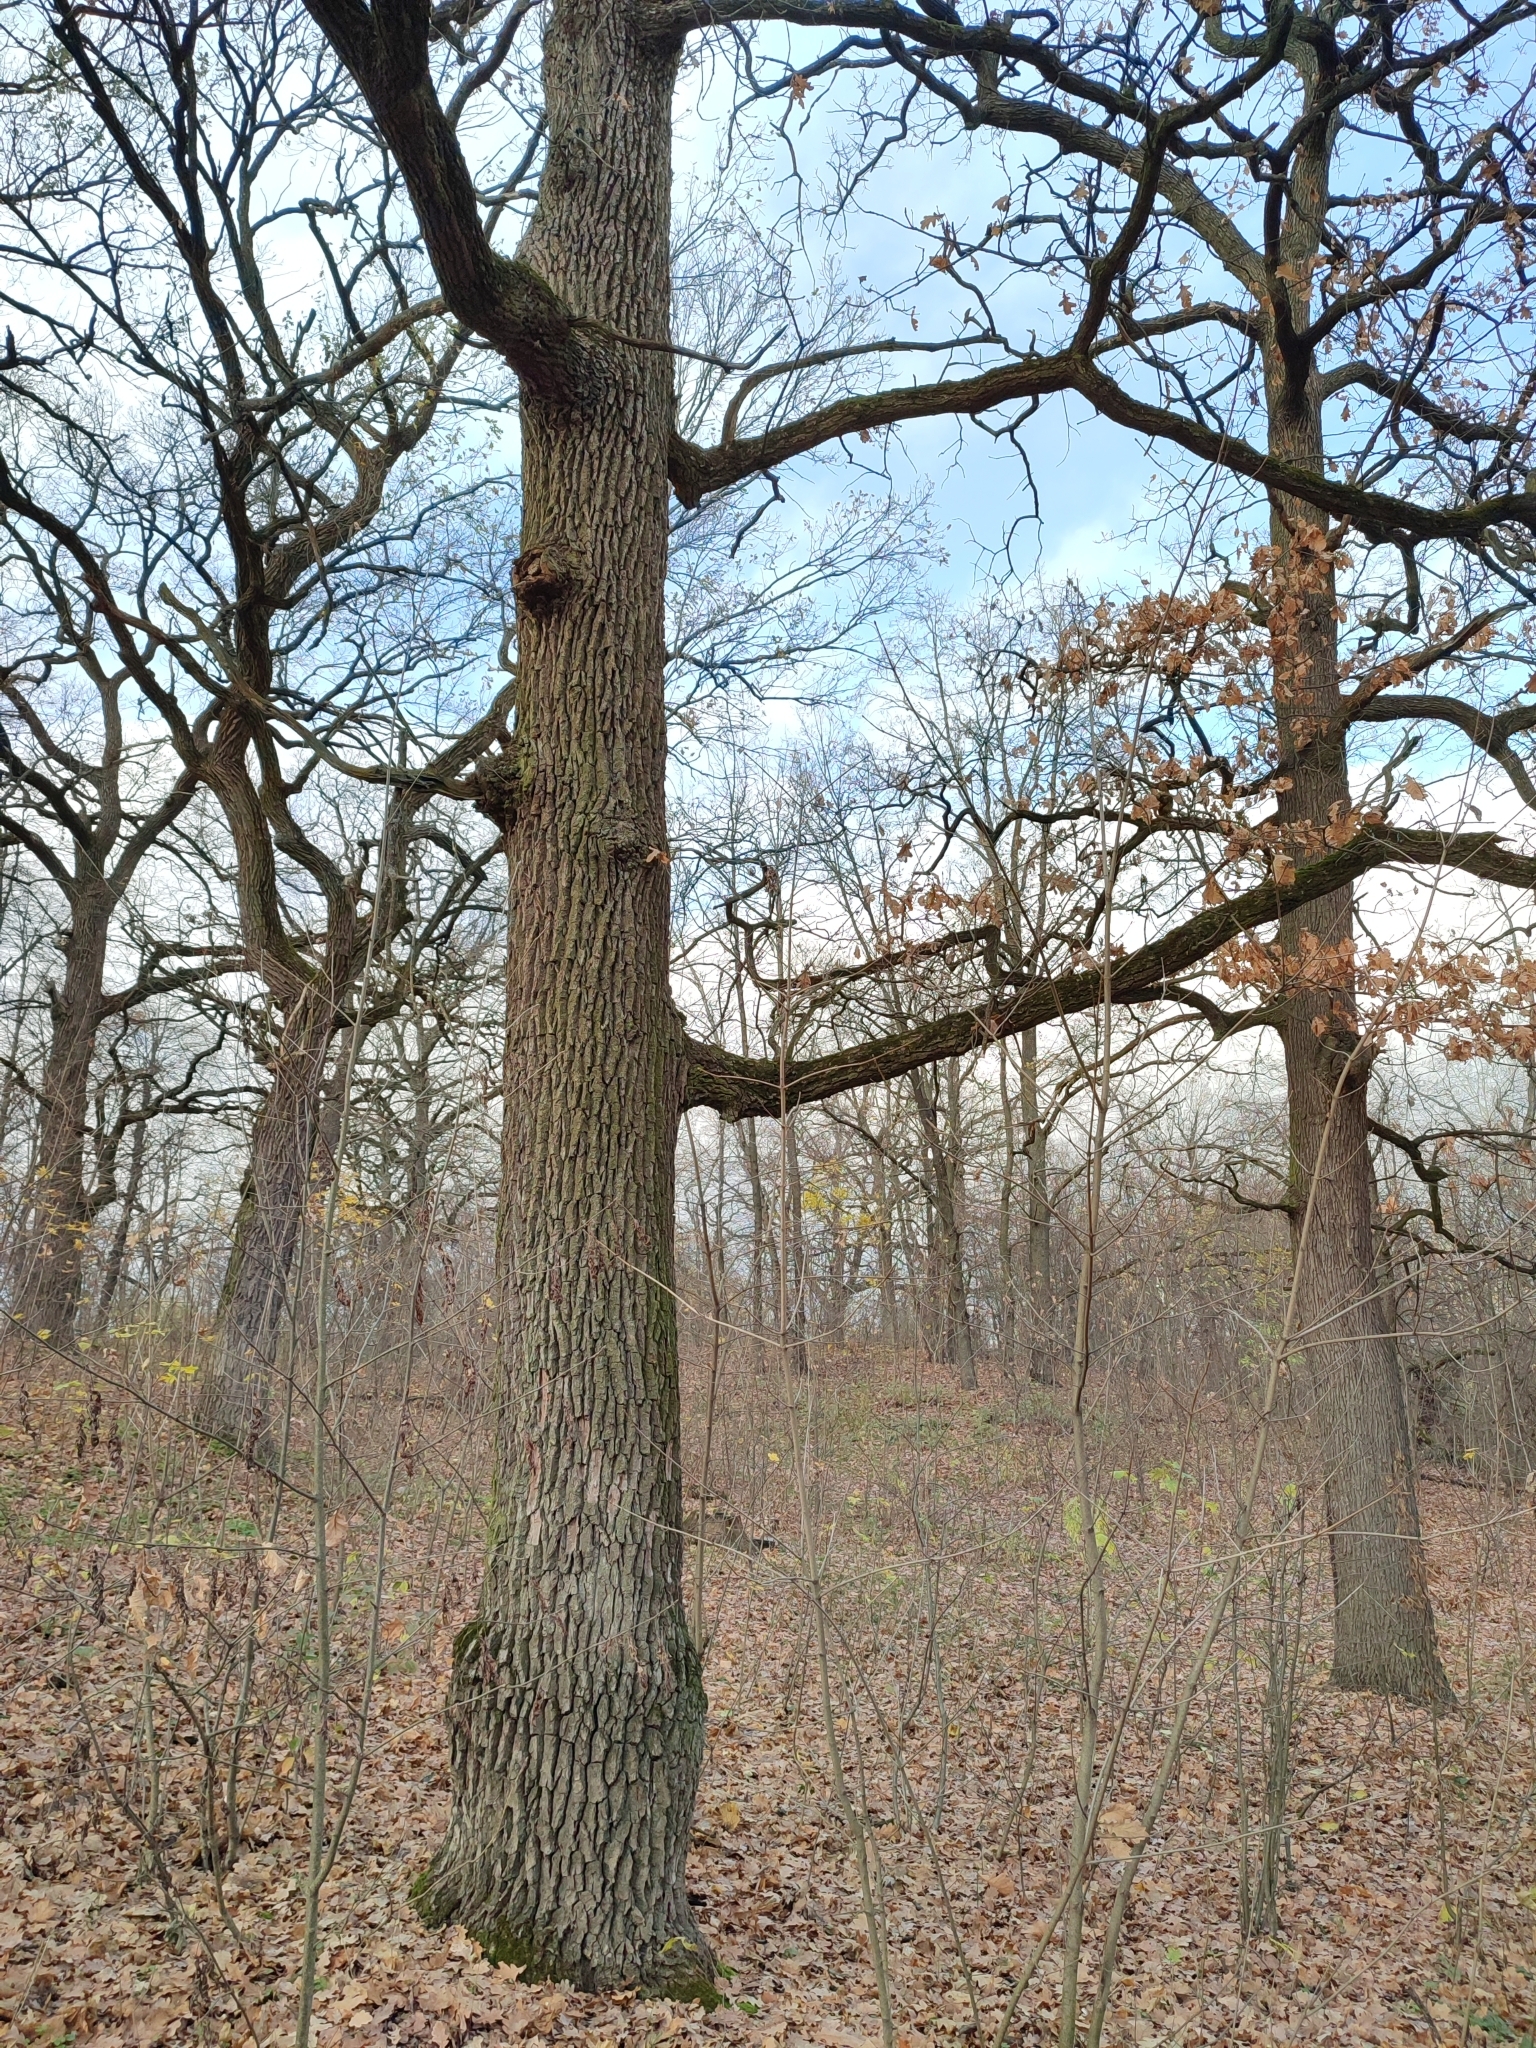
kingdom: Plantae
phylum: Tracheophyta
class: Magnoliopsida
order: Fagales
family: Fagaceae
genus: Quercus
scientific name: Quercus robur
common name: Pedunculate oak
